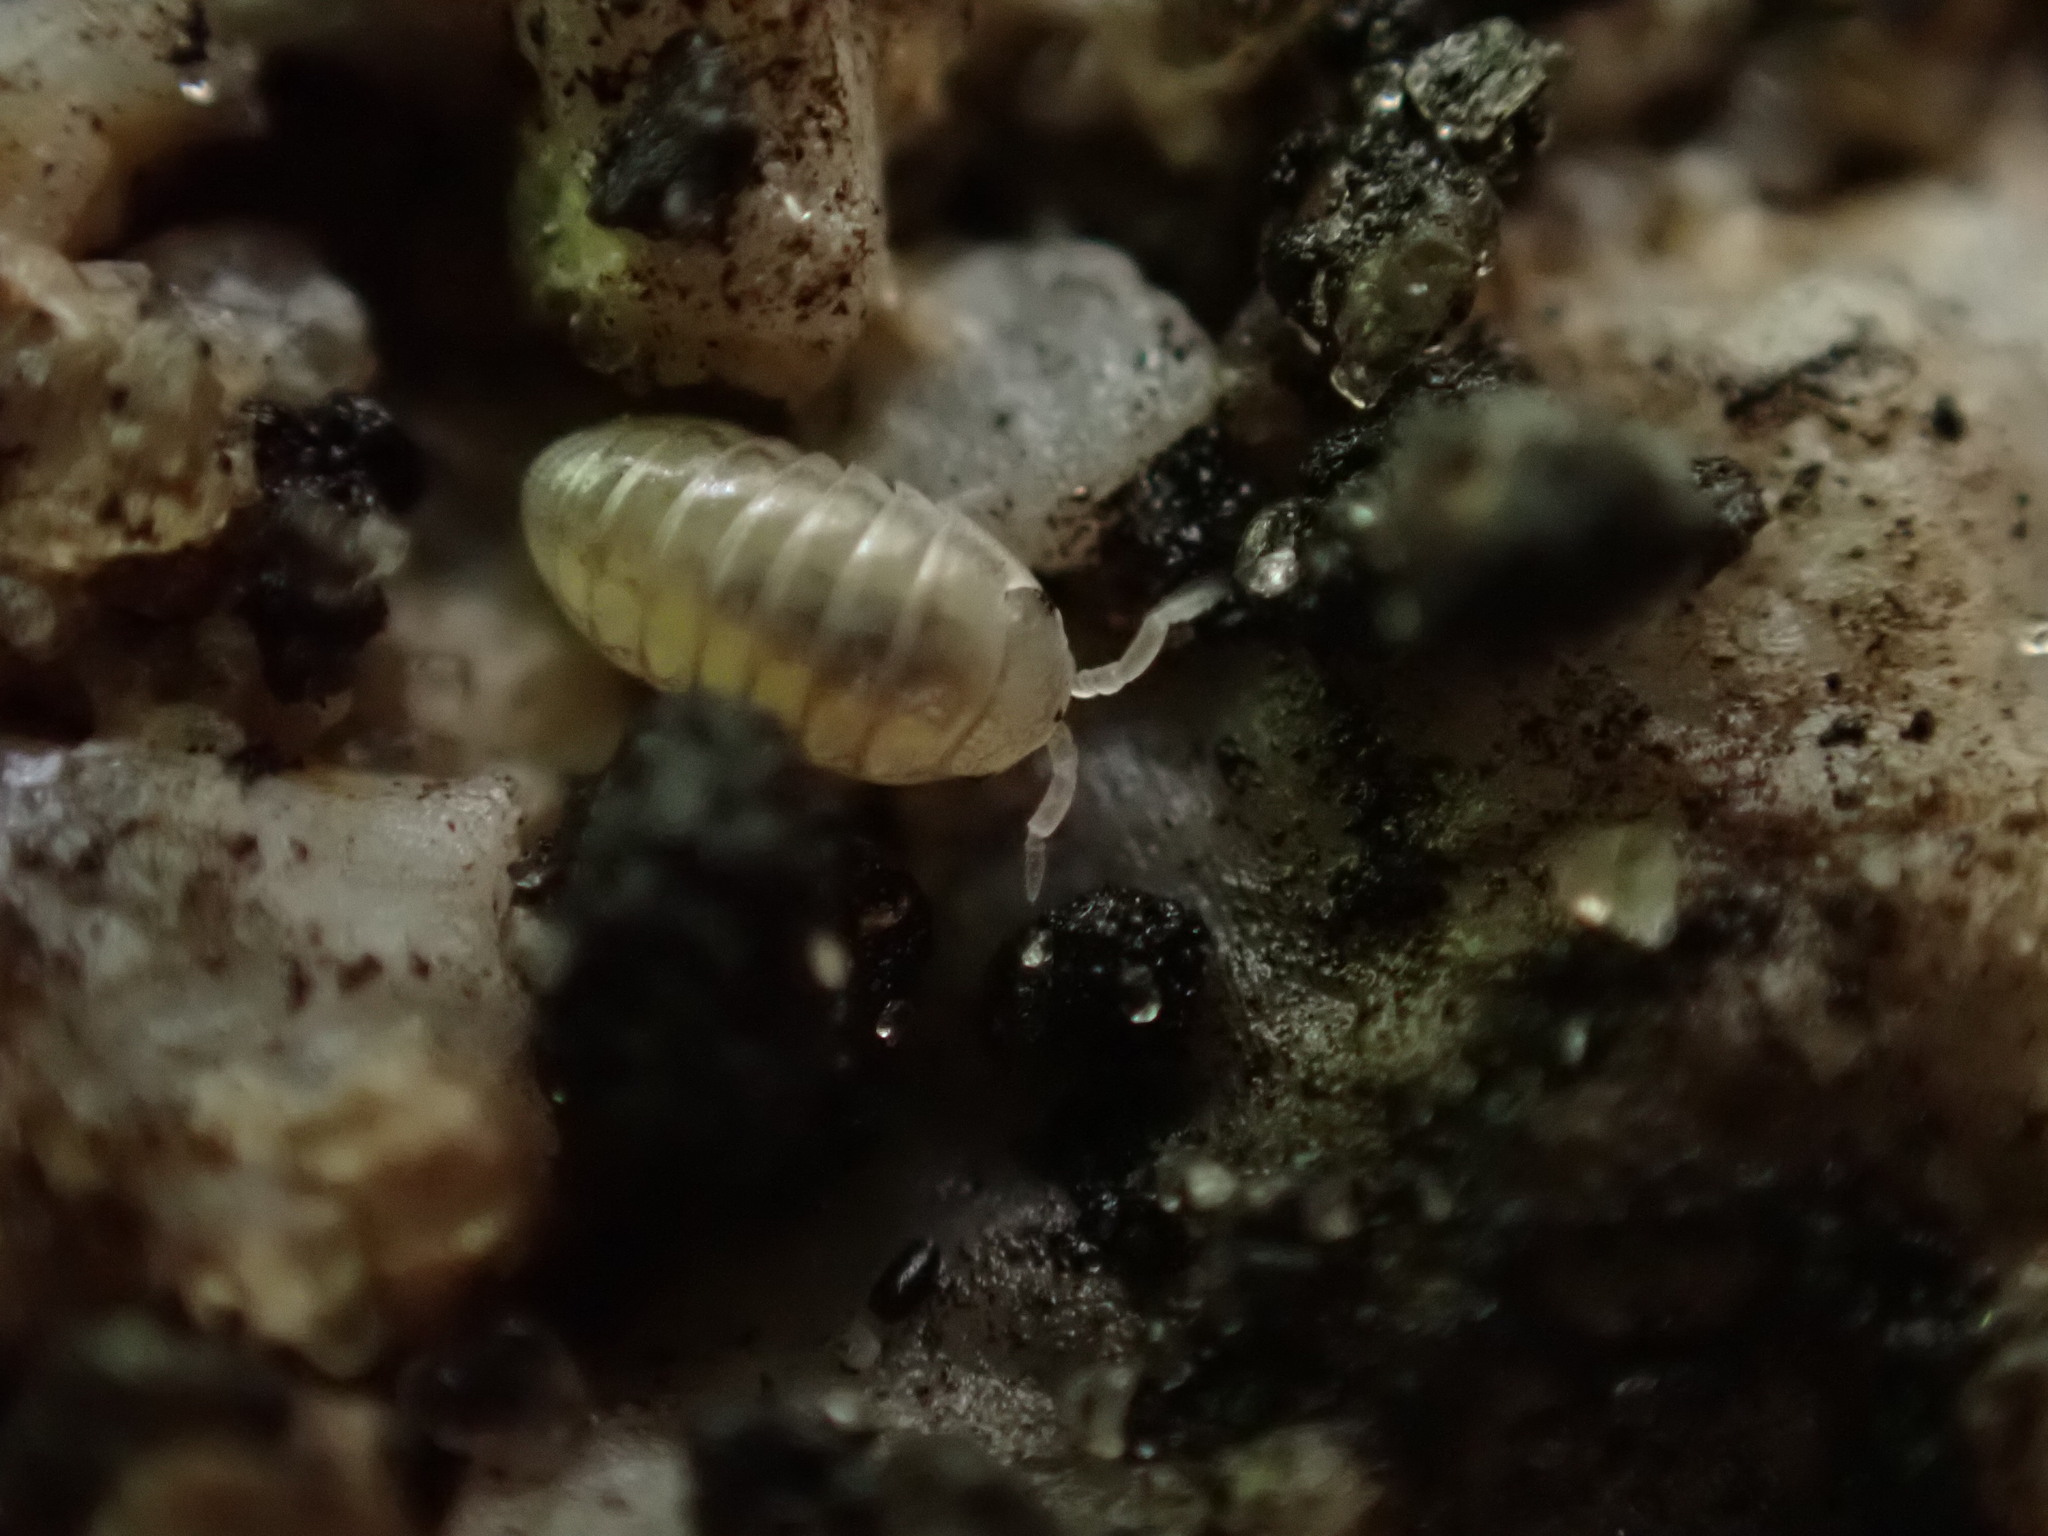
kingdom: Animalia
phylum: Arthropoda
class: Malacostraca
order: Isopoda
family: Armadillidiidae
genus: Armadillidium
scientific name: Armadillidium vulgare
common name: Common pill woodlouse
